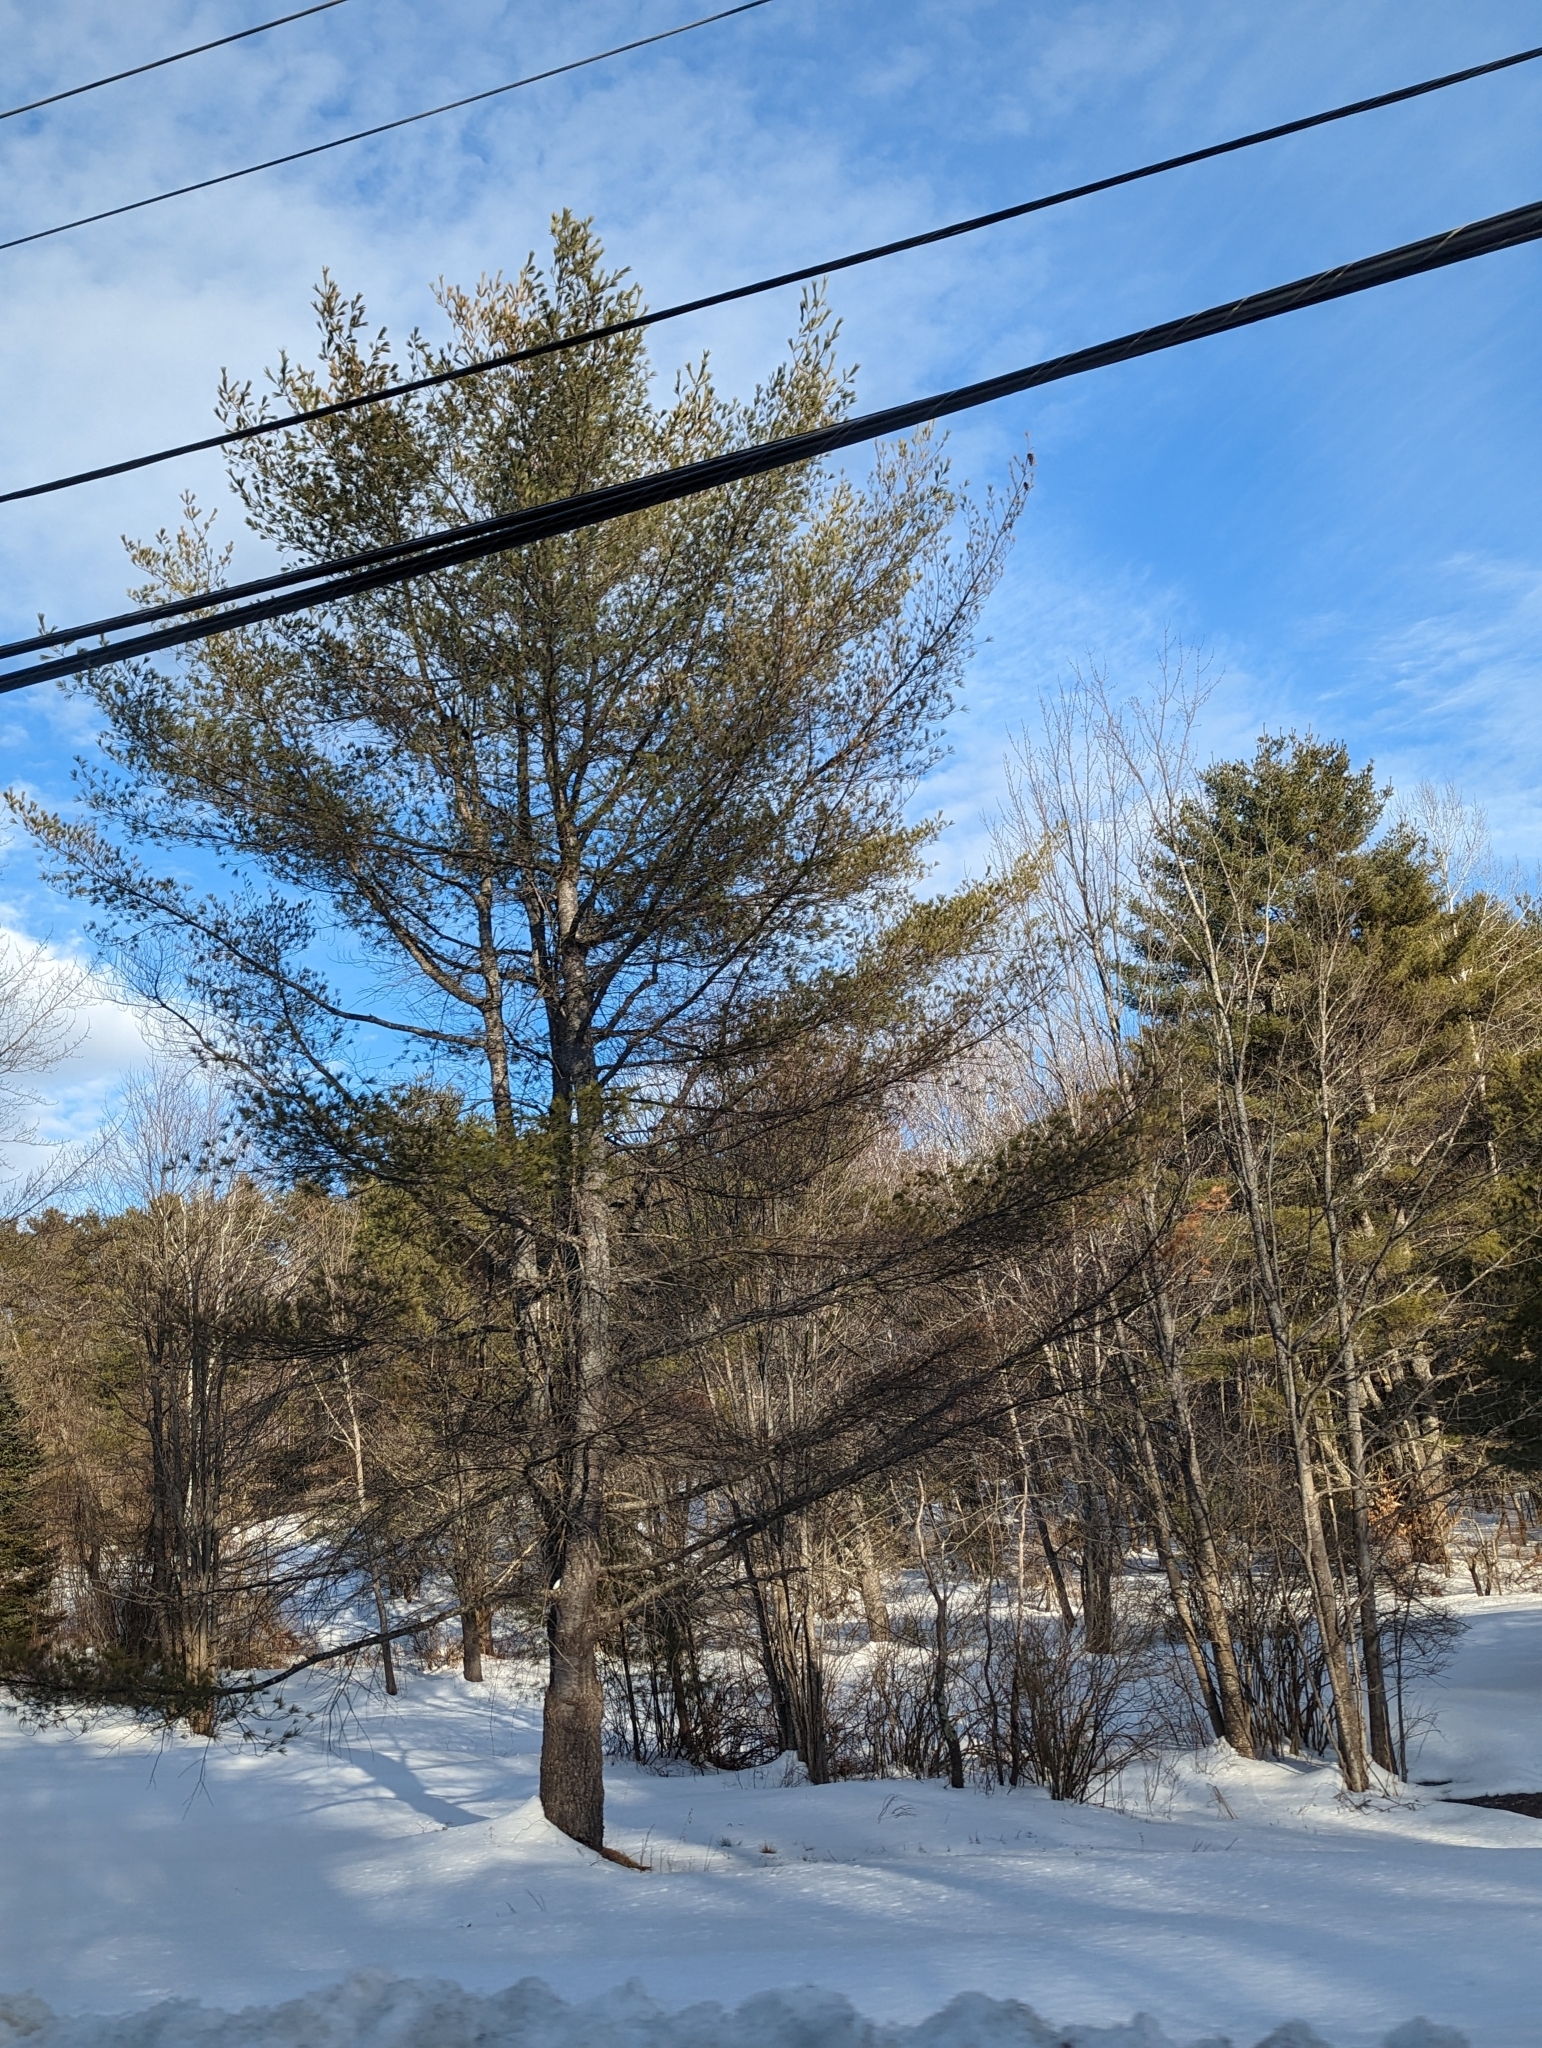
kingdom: Plantae
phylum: Tracheophyta
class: Pinopsida
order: Pinales
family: Pinaceae
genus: Pinus
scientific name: Pinus strobus
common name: Weymouth pine
